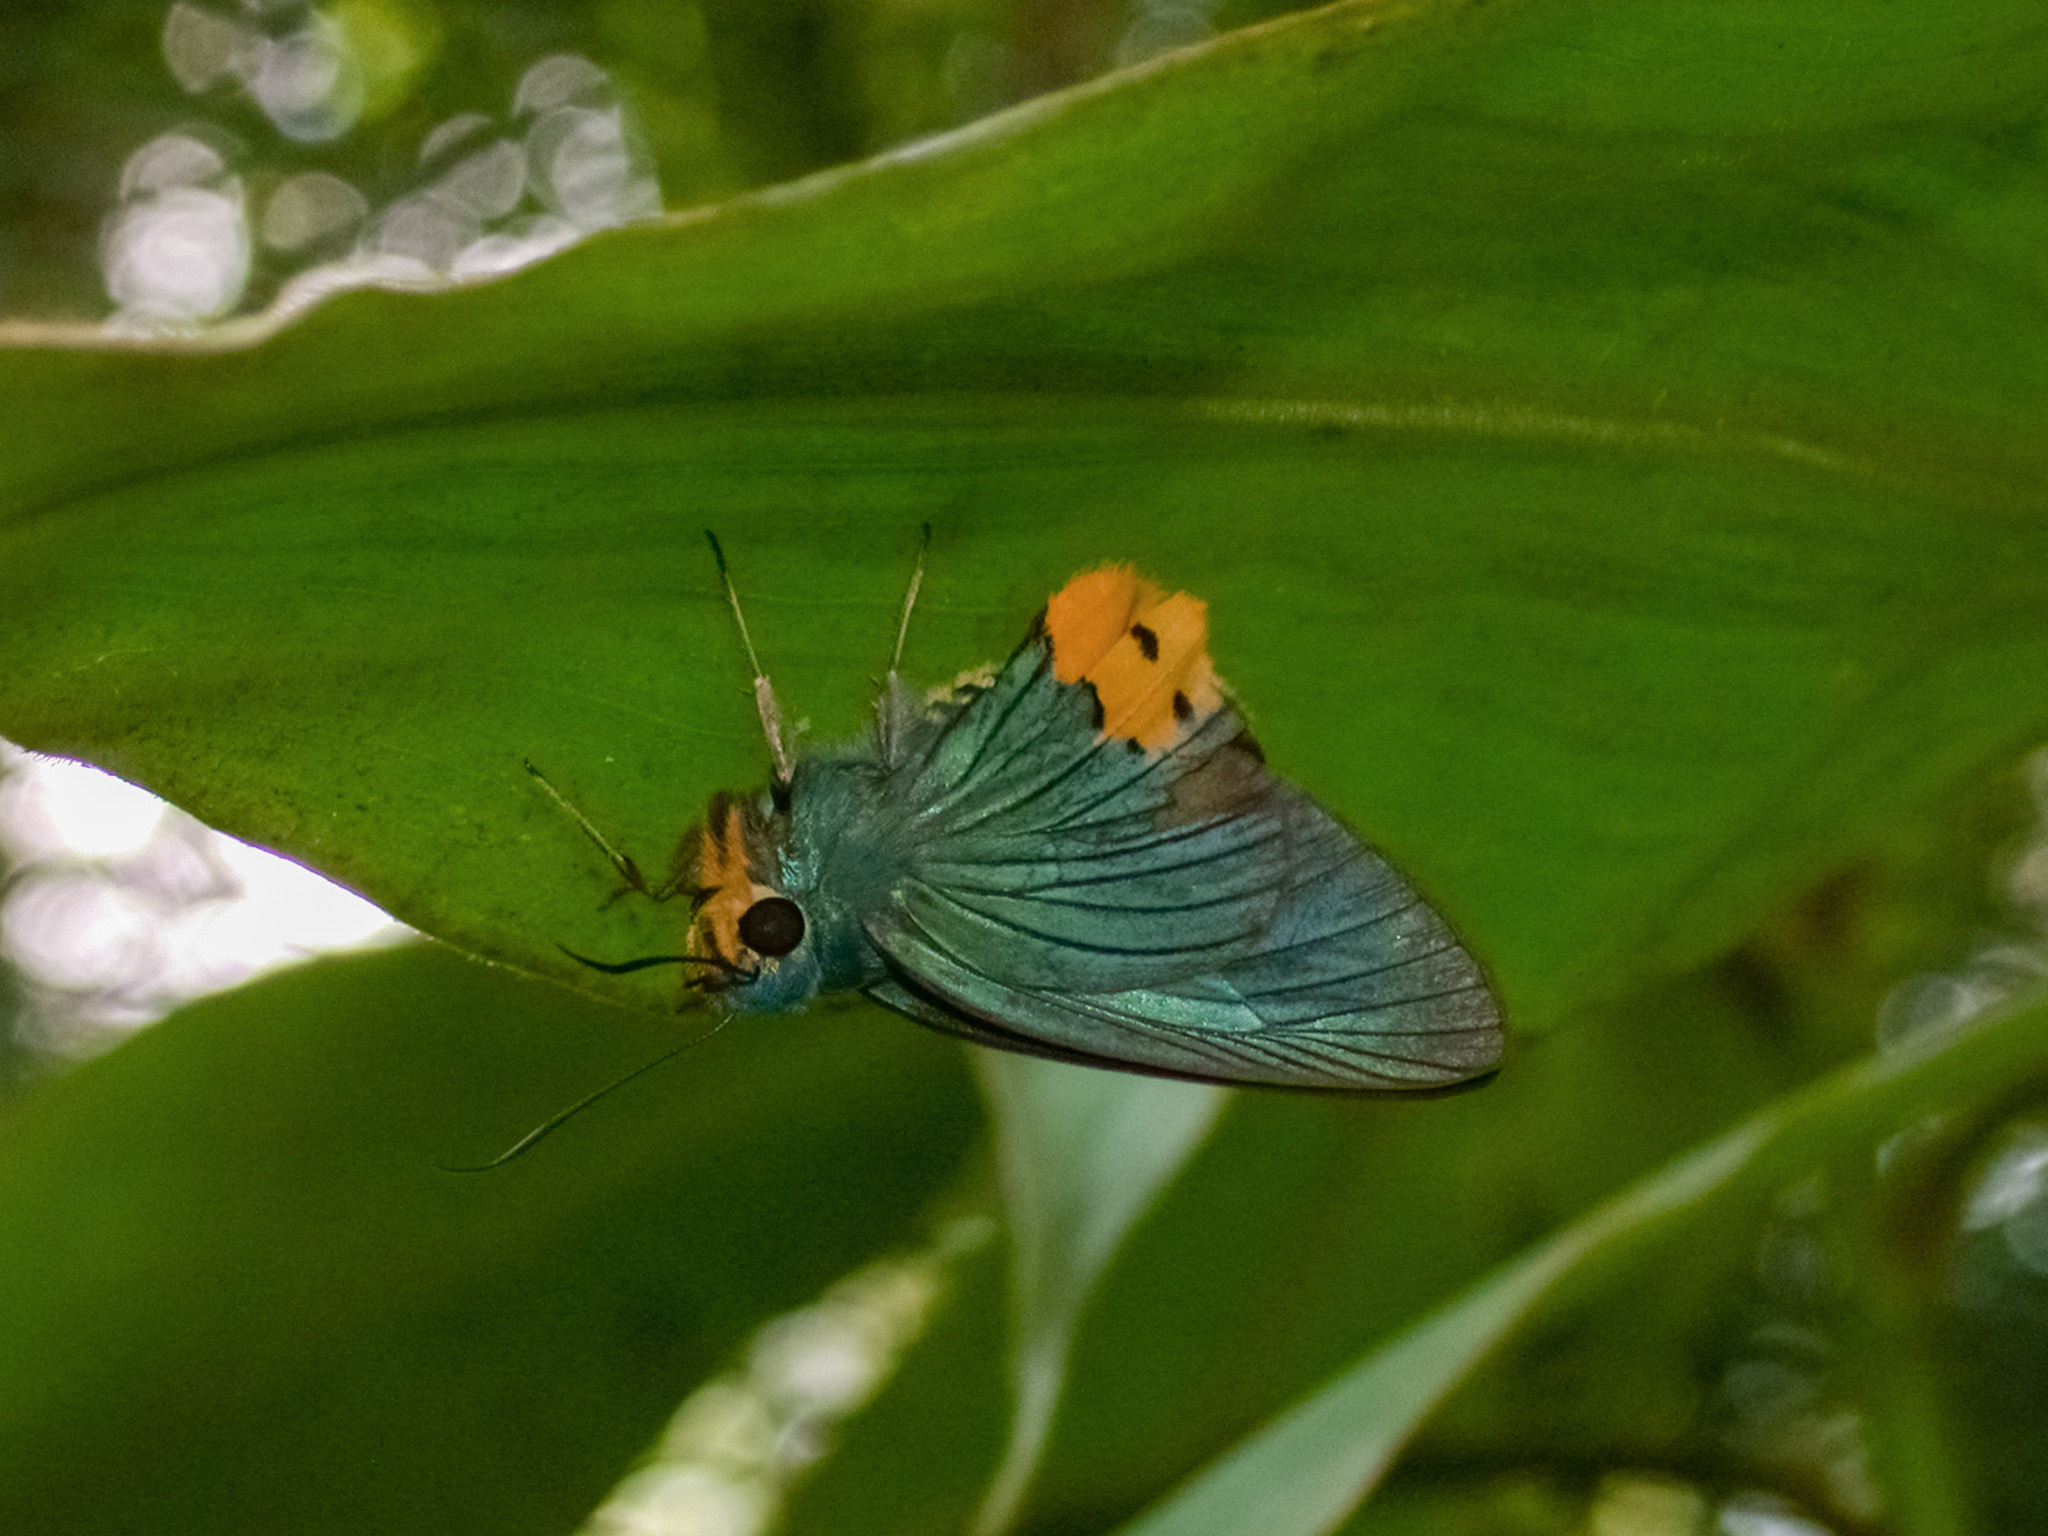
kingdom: Animalia
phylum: Arthropoda
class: Insecta
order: Lepidoptera
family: Hesperiidae
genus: Choaspes
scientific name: Choaspes benjaminii
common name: Indian awlking
